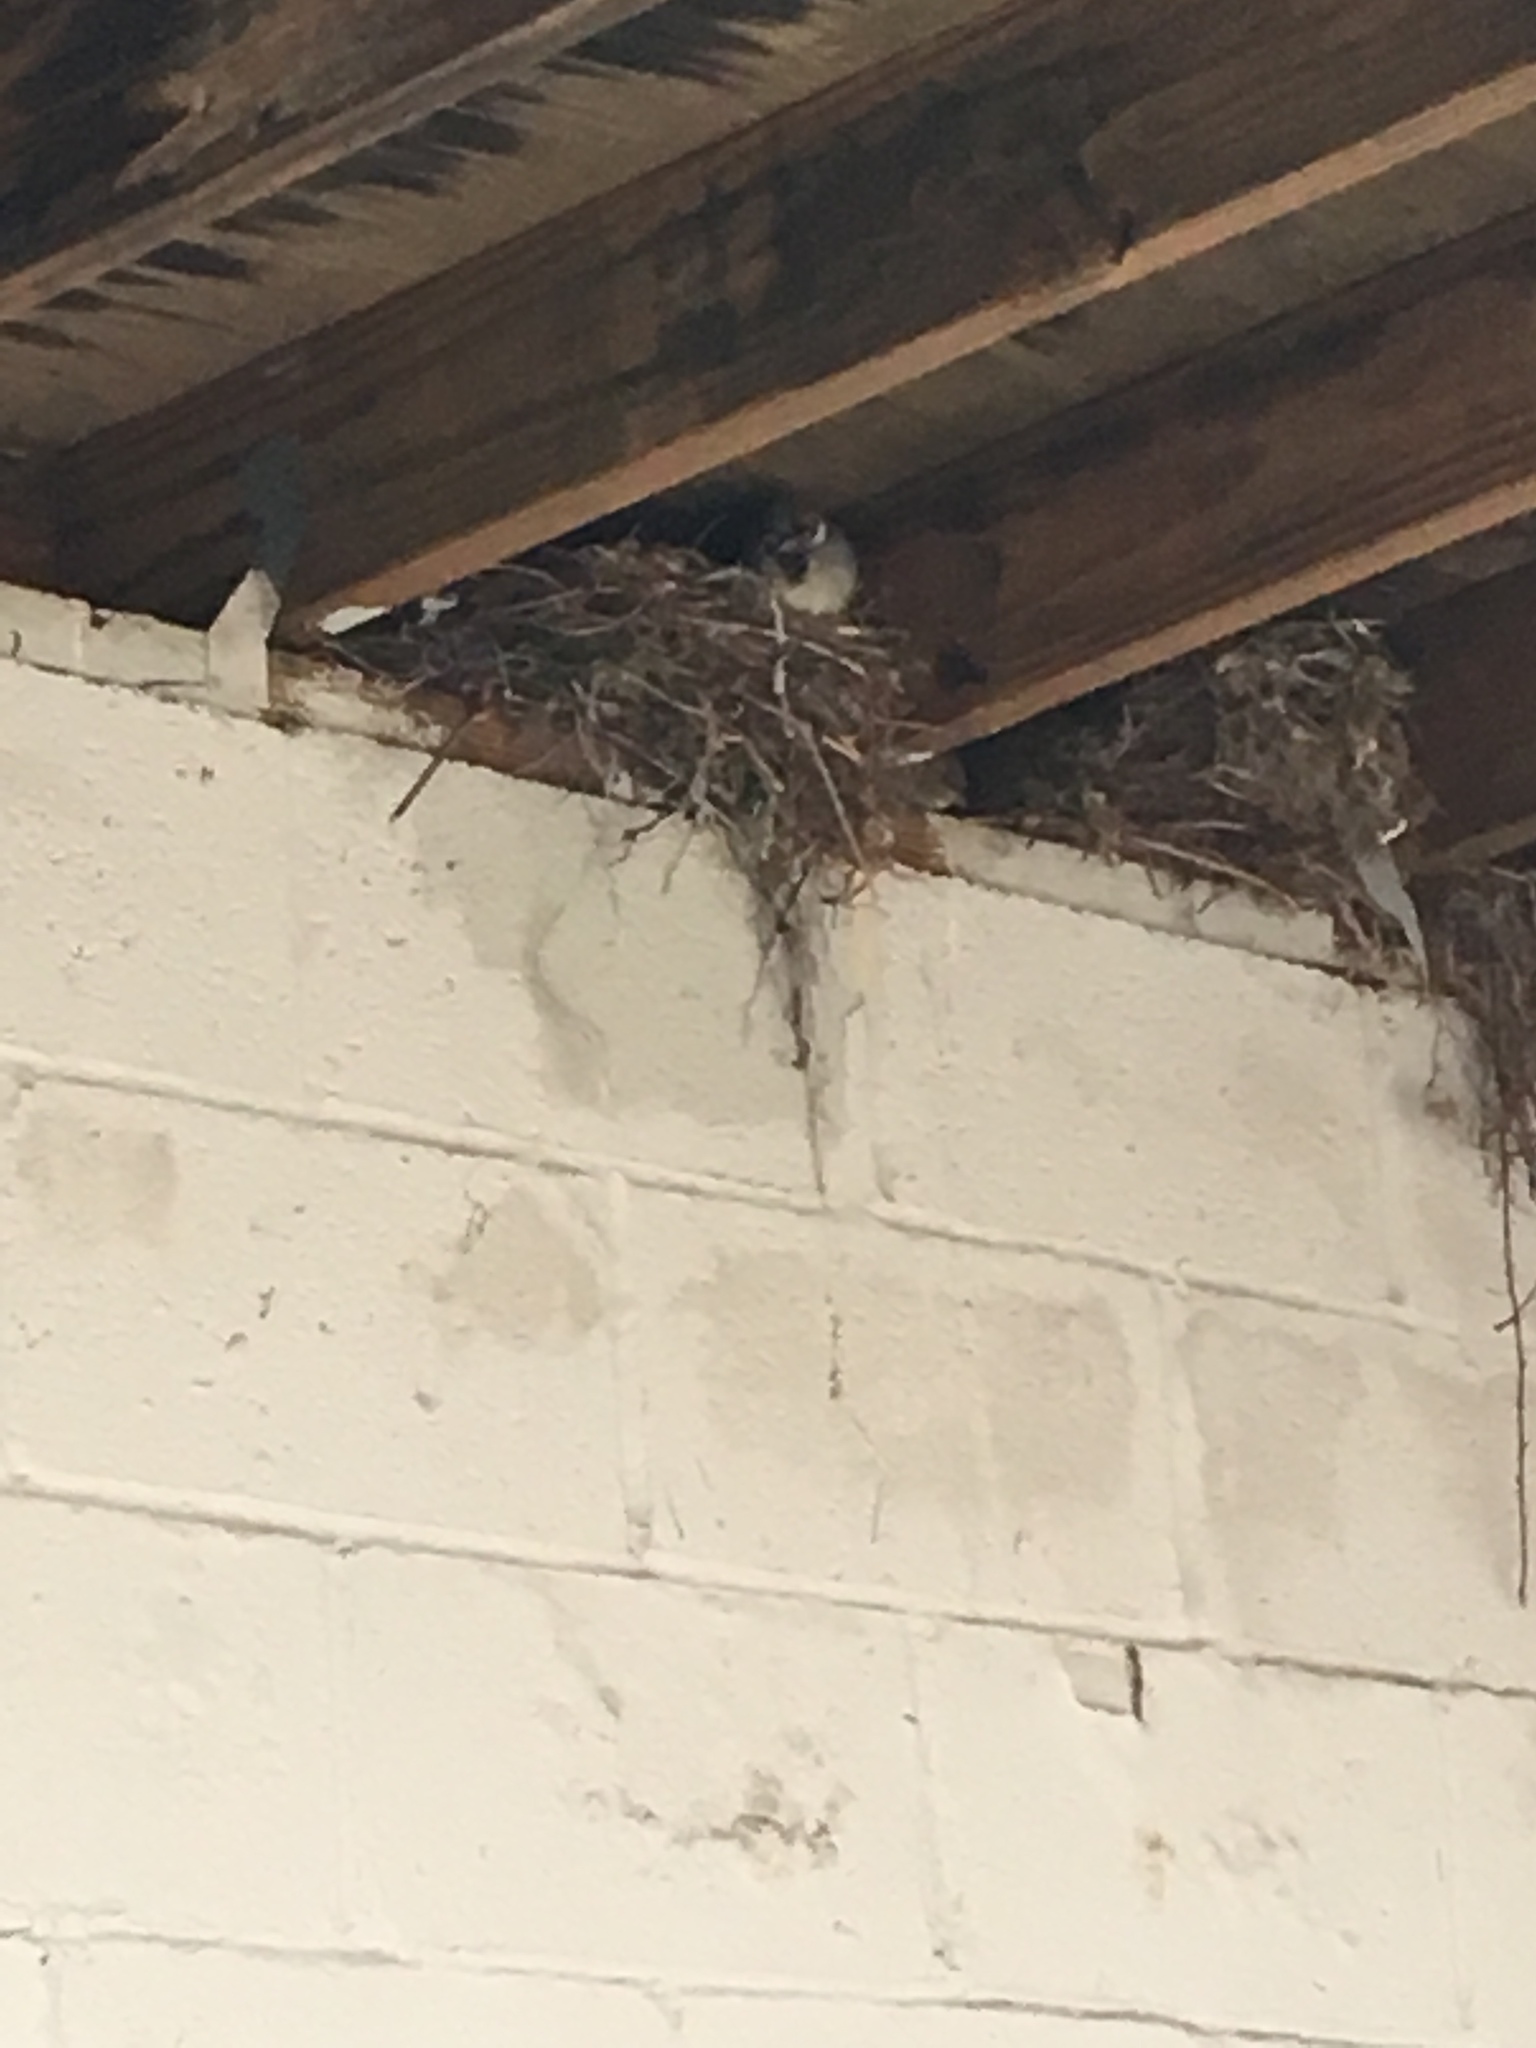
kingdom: Animalia
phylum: Chordata
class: Aves
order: Passeriformes
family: Passeridae
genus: Passer
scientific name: Passer domesticus
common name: House sparrow
